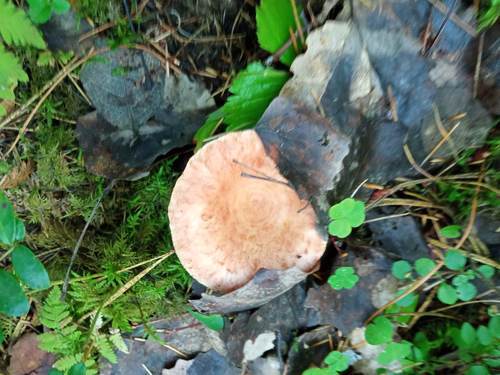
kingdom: Fungi
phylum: Basidiomycota
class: Agaricomycetes
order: Russulales
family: Russulaceae
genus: Lactarius
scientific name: Lactarius torminosus
